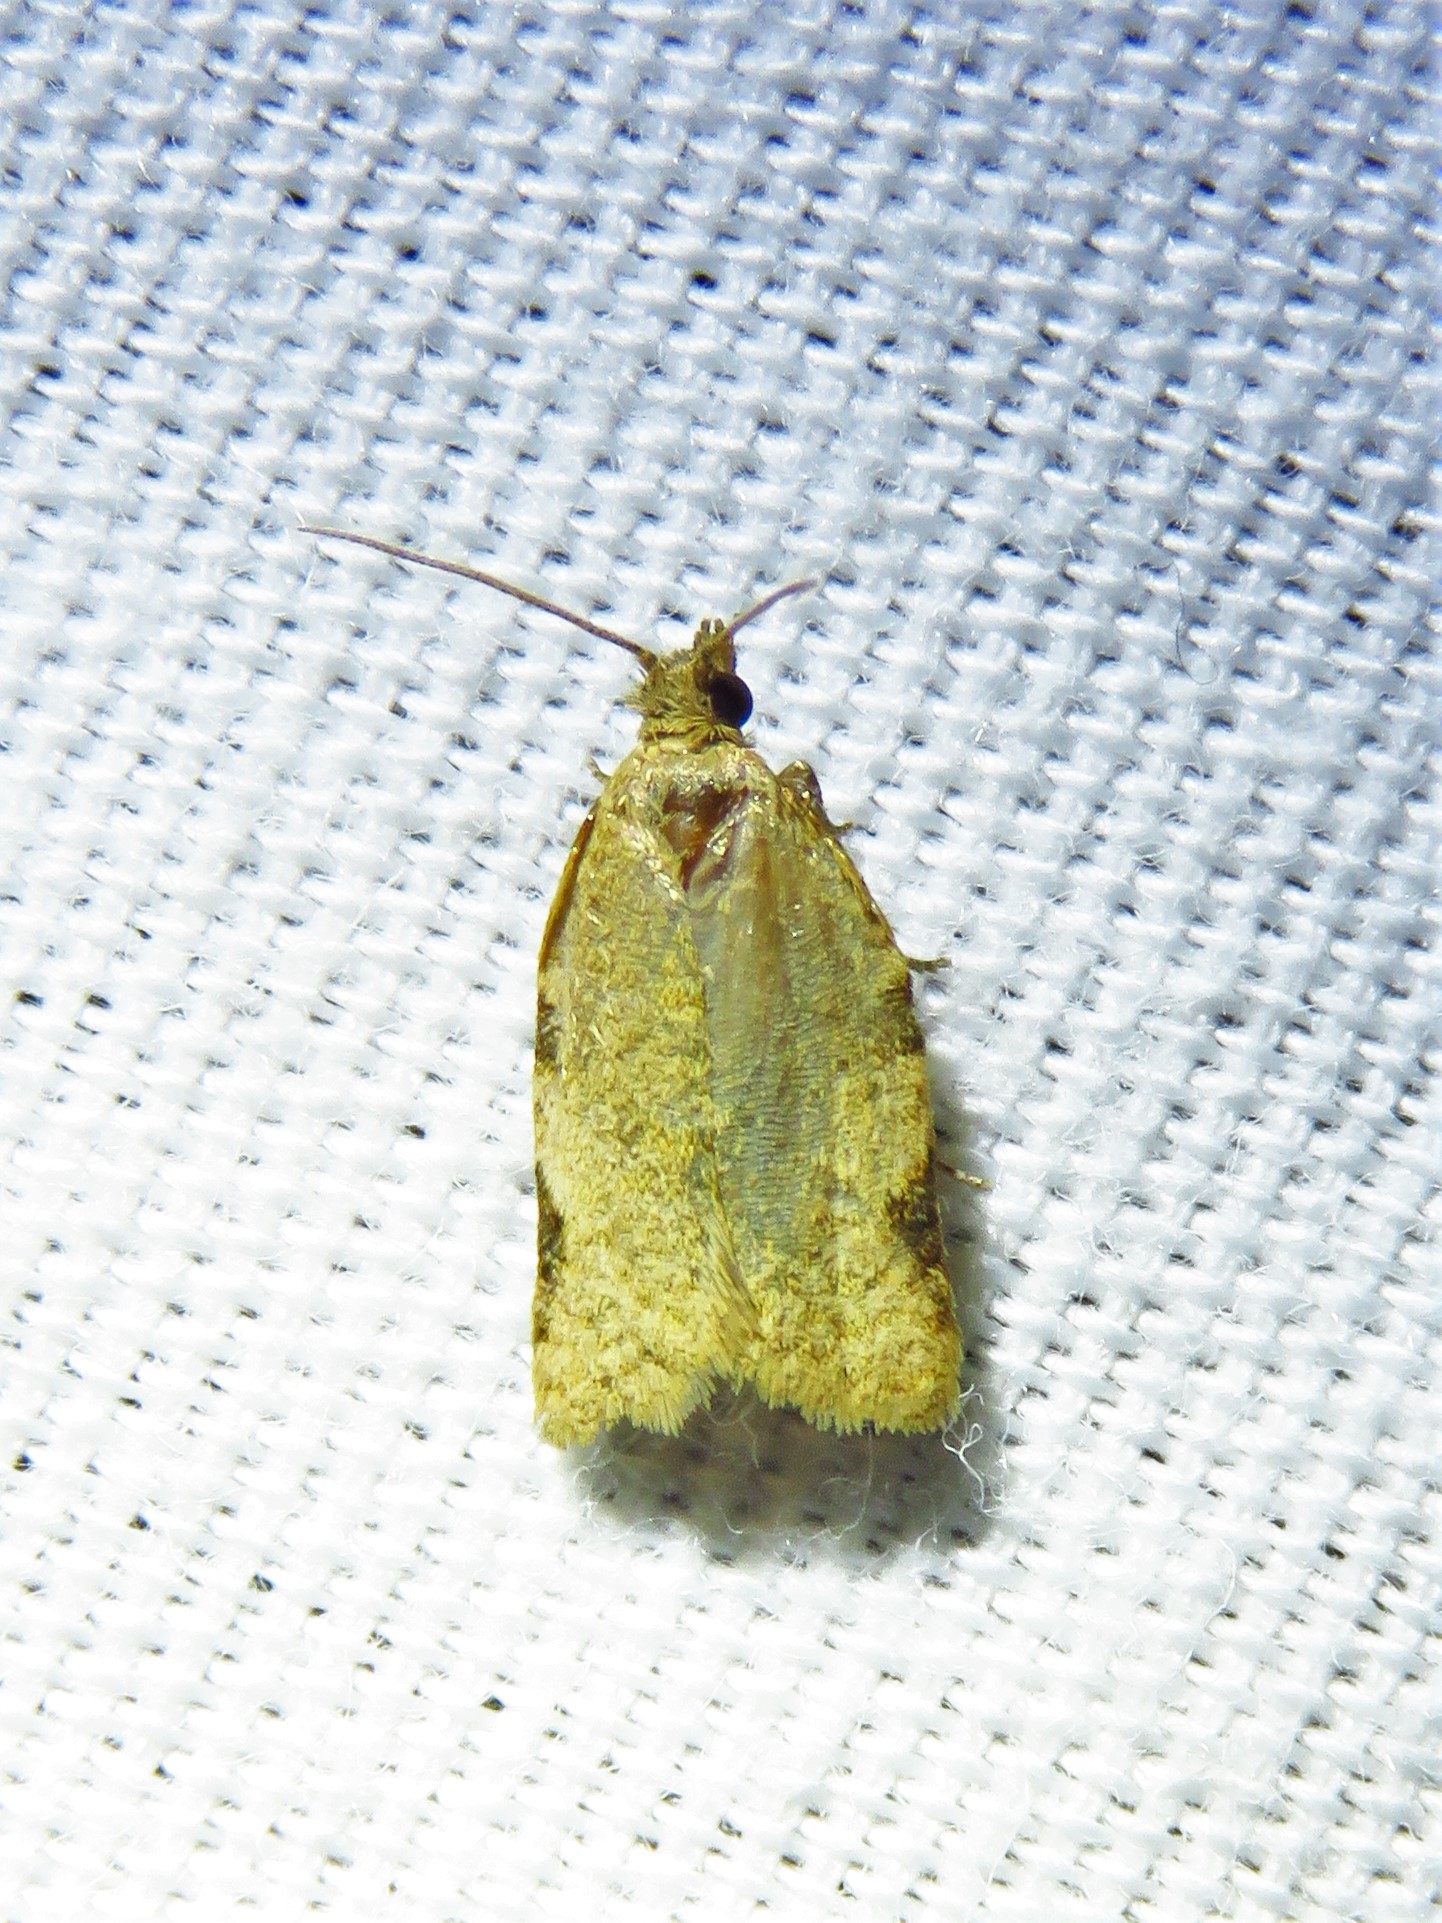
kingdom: Animalia
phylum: Arthropoda
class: Insecta
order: Lepidoptera
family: Tortricidae
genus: Clepsis
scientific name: Clepsis virescana
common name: Greenish apple moth
